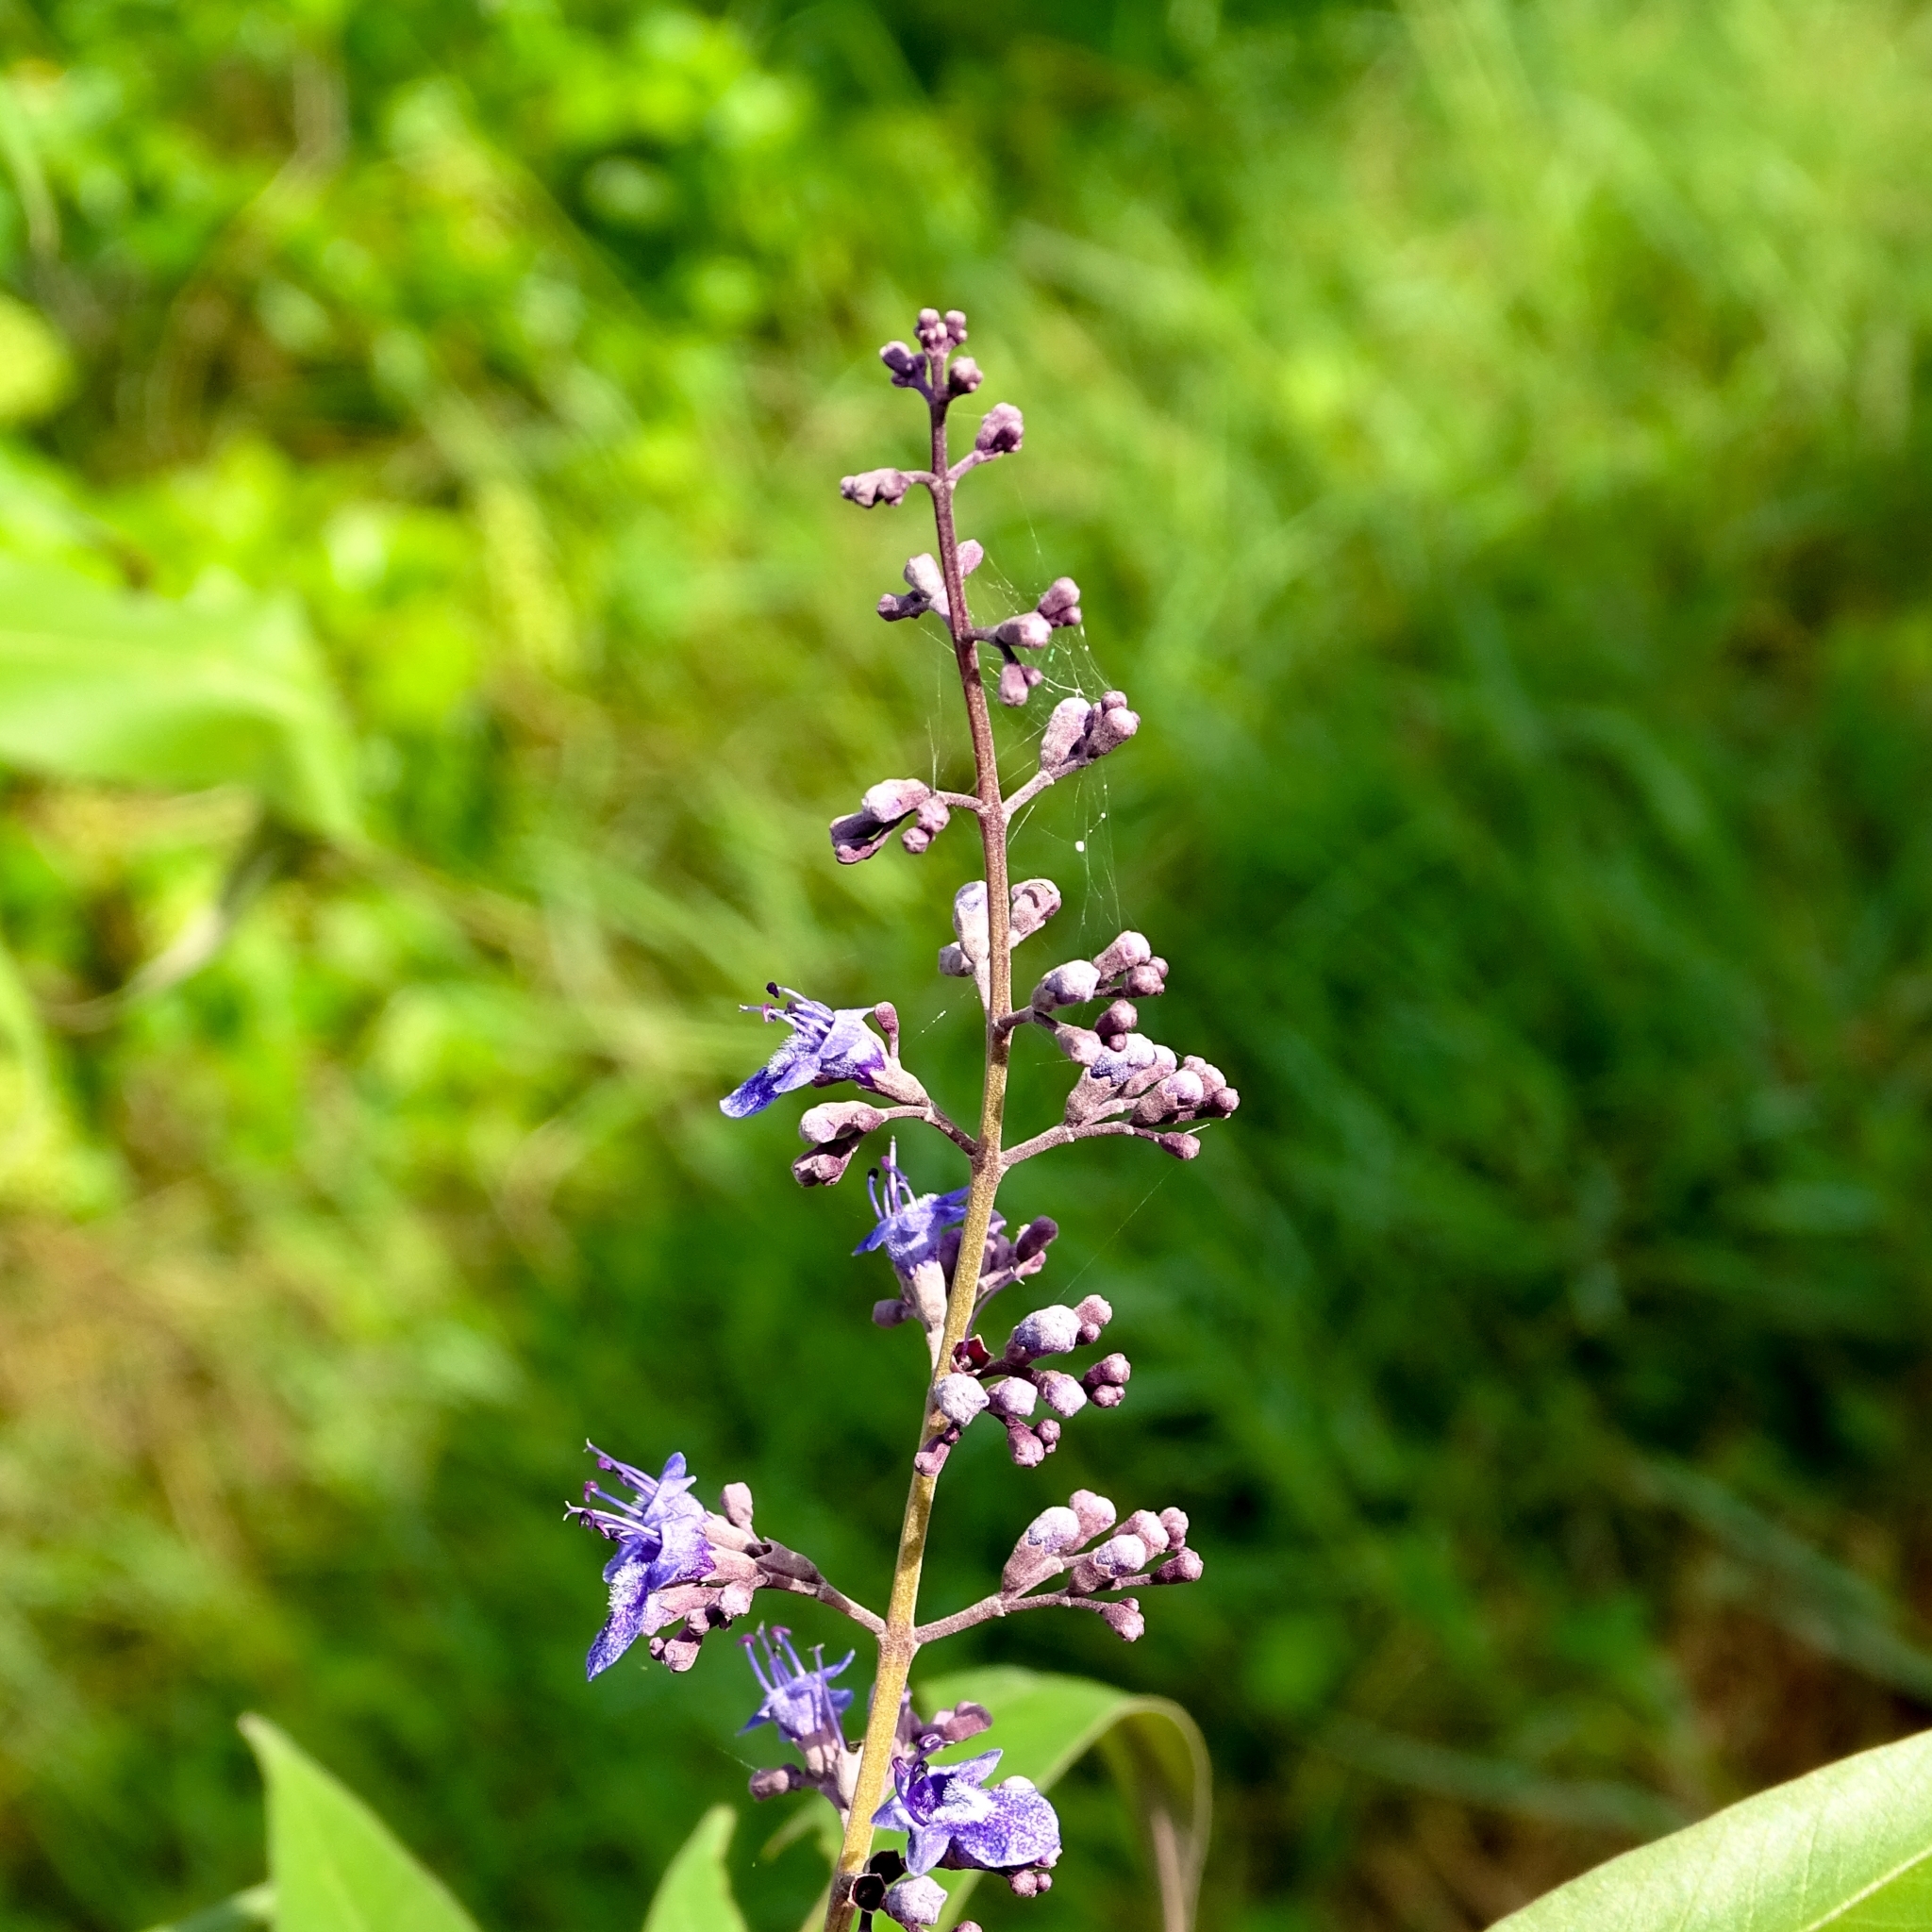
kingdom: Plantae
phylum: Tracheophyta
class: Magnoliopsida
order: Lamiales
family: Lamiaceae
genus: Vitex
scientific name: Vitex negundo
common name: Chinese chastetree
